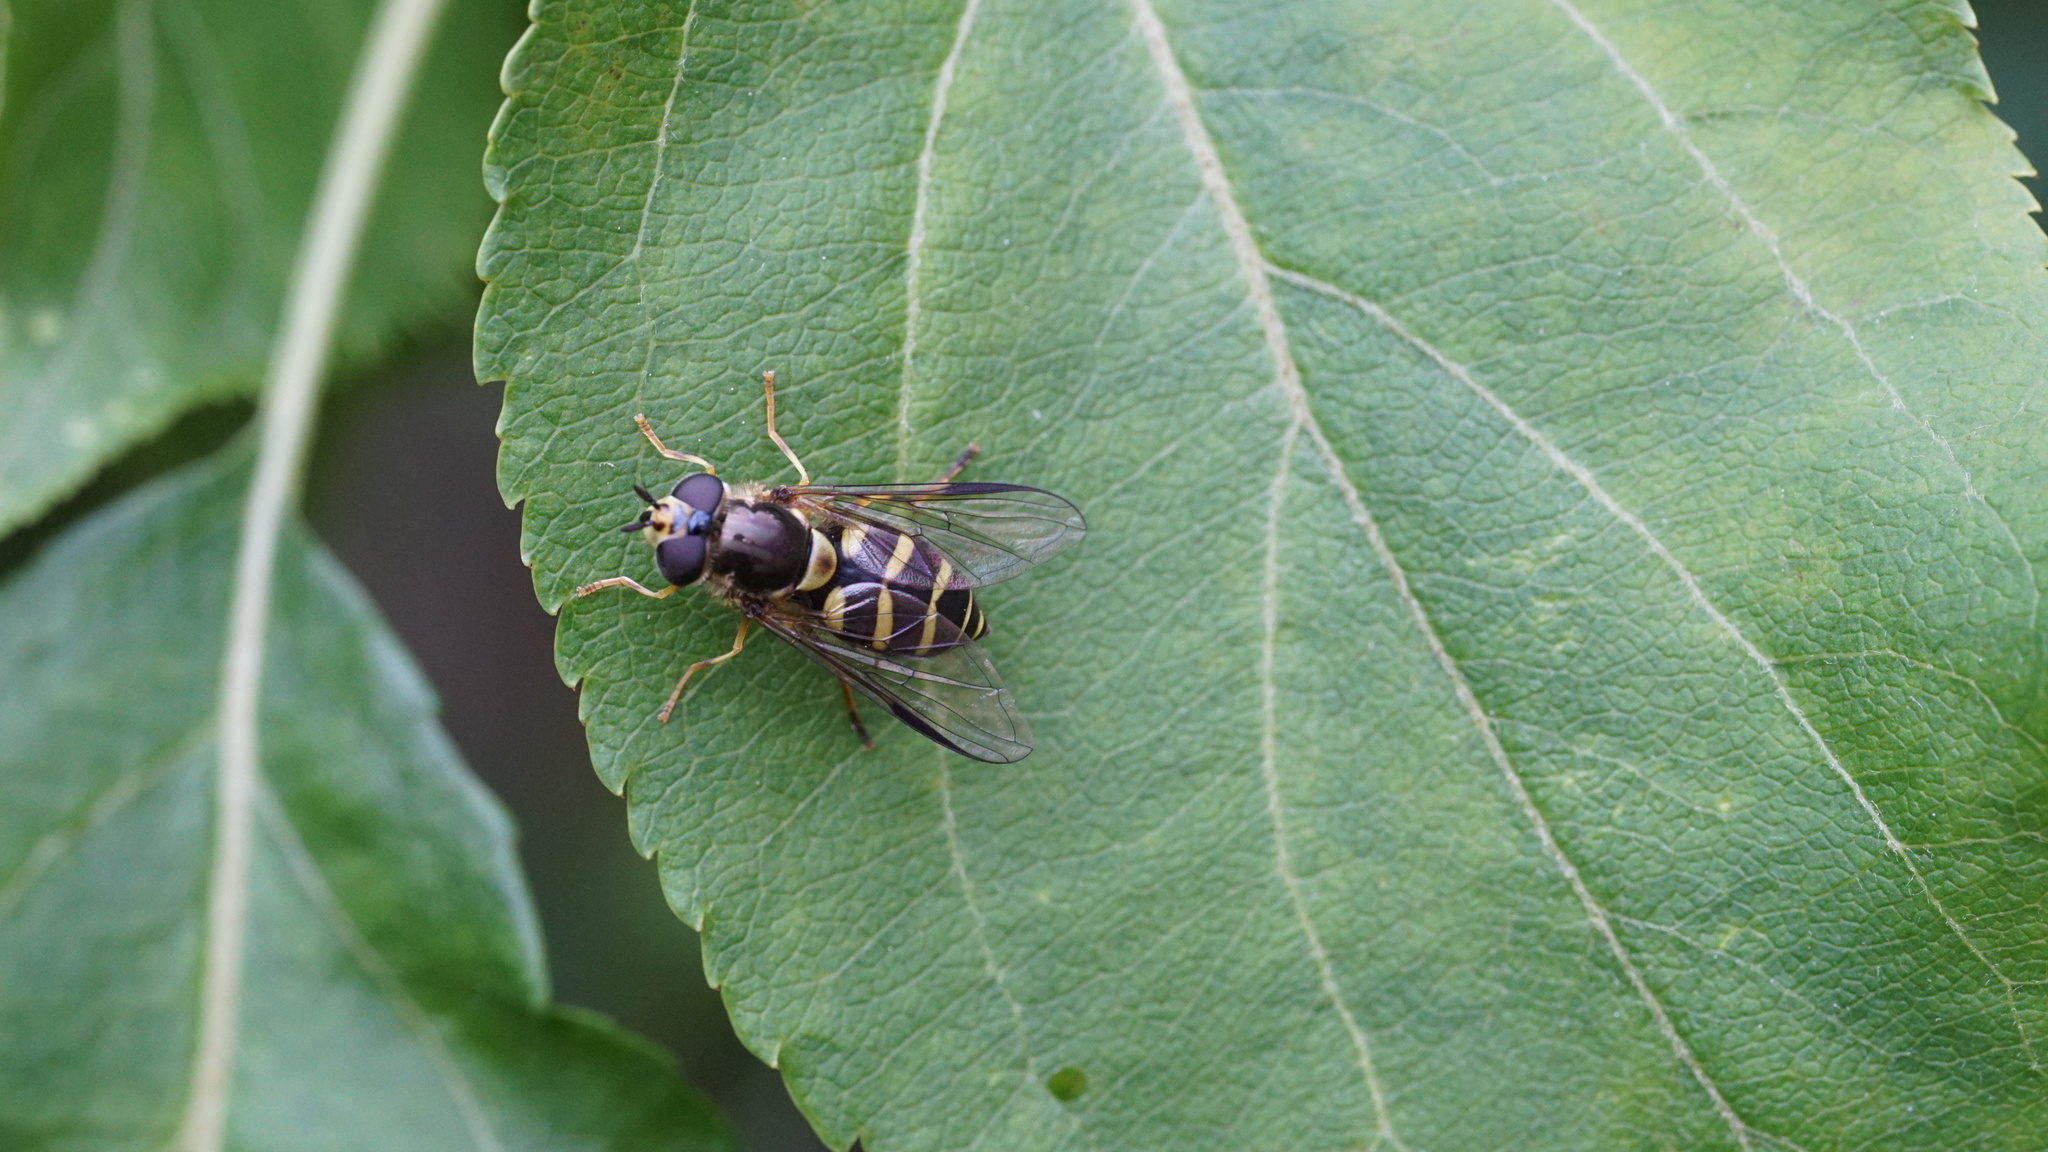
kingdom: Animalia
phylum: Arthropoda
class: Insecta
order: Diptera
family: Syrphidae
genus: Dasysyrphus
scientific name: Dasysyrphus albostriatus
